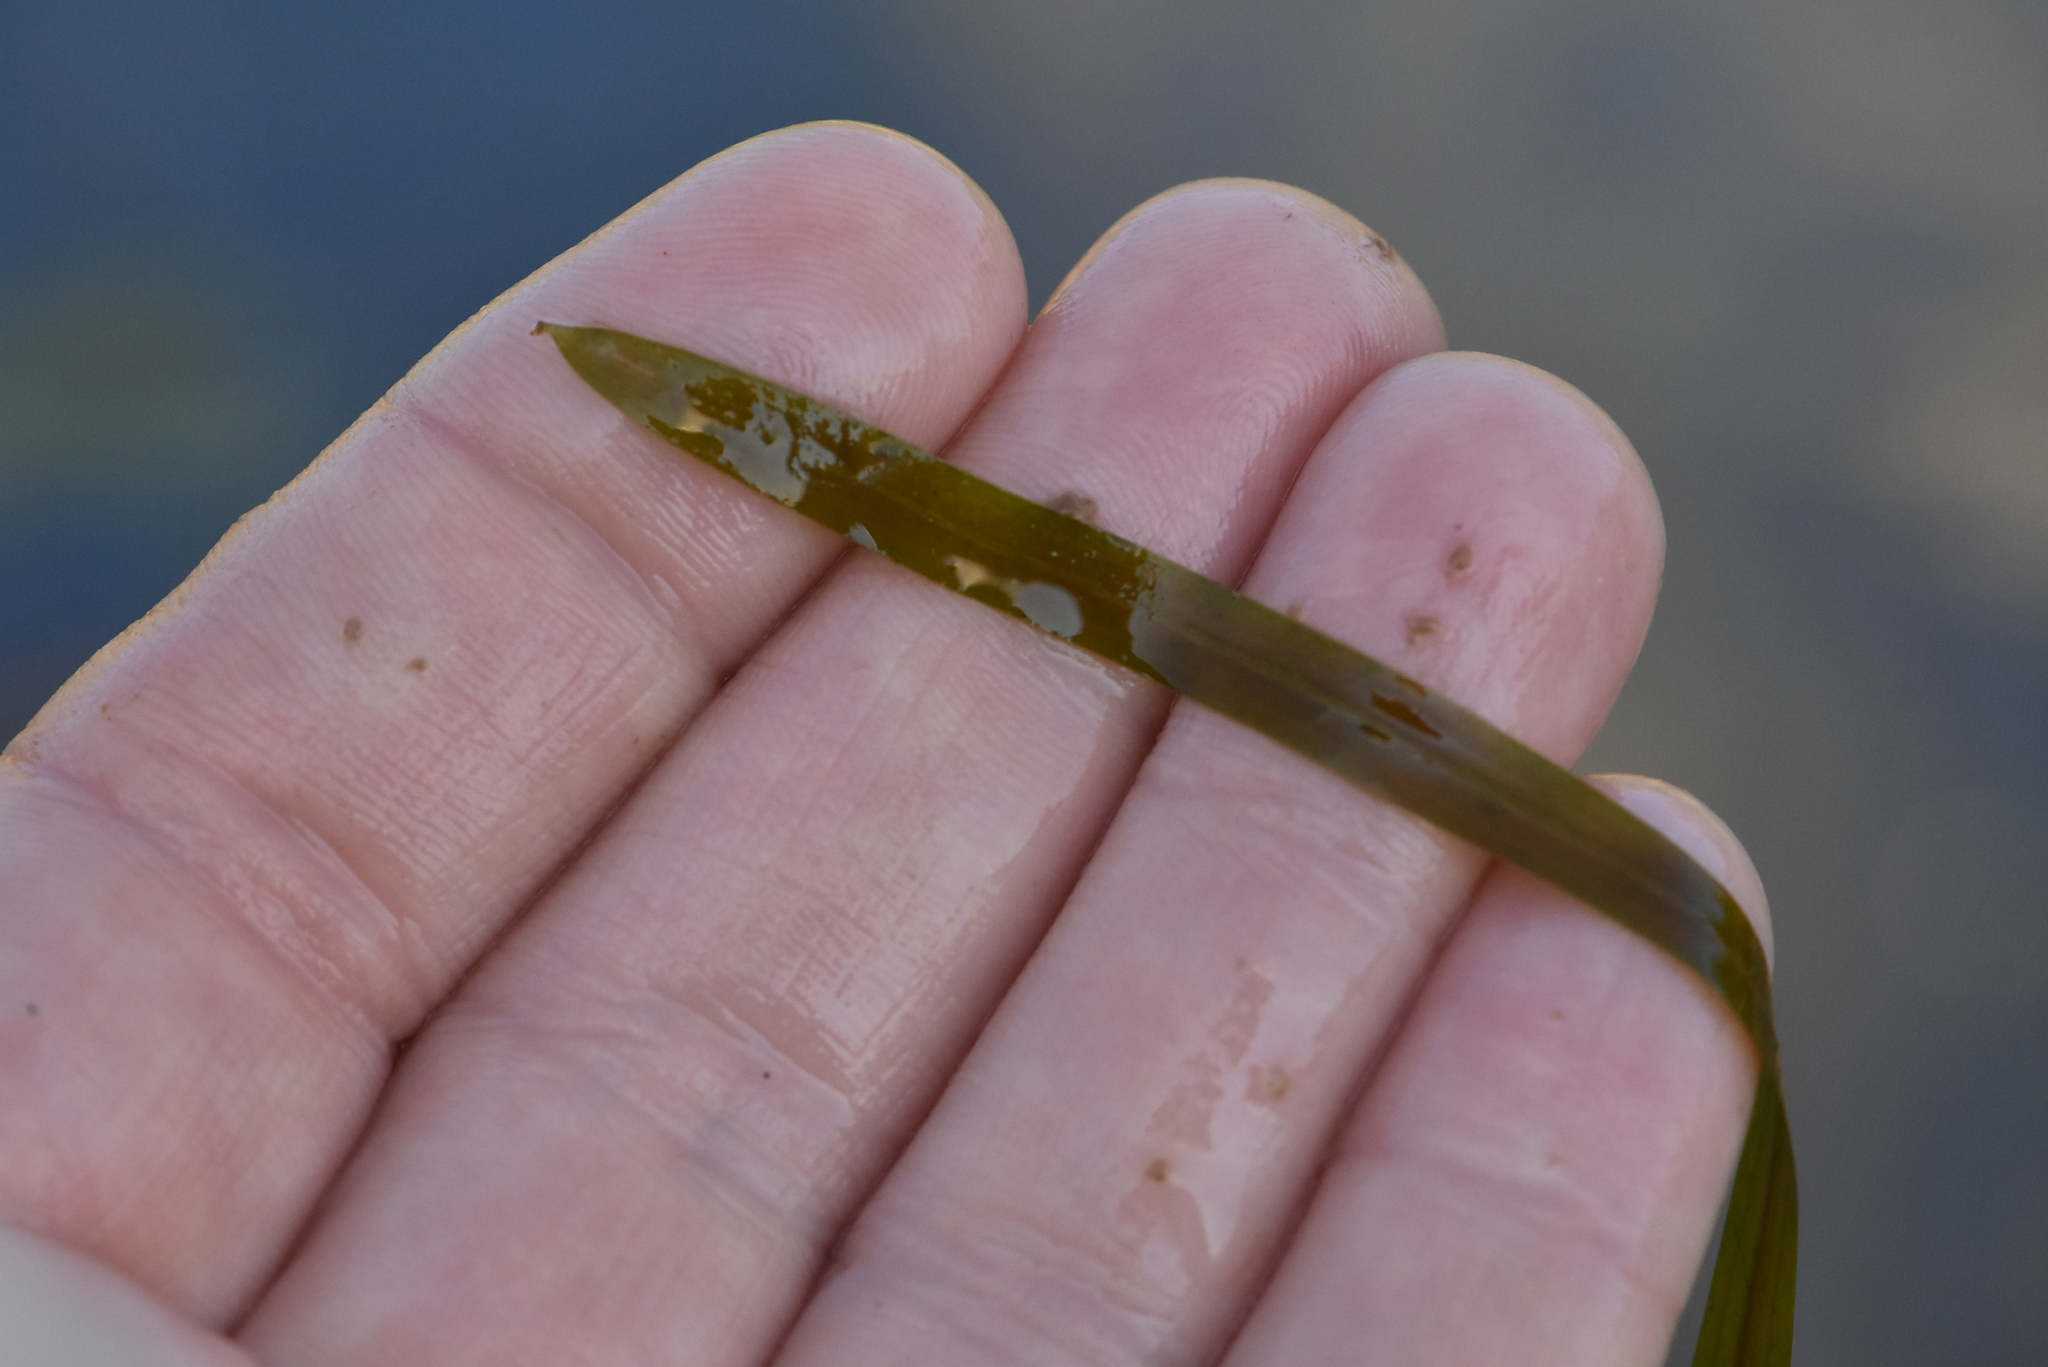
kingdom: Plantae
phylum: Tracheophyta
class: Liliopsida
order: Alismatales
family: Potamogetonaceae
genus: Potamogeton
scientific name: Potamogeton compressus
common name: Grass-wrack pondweed
